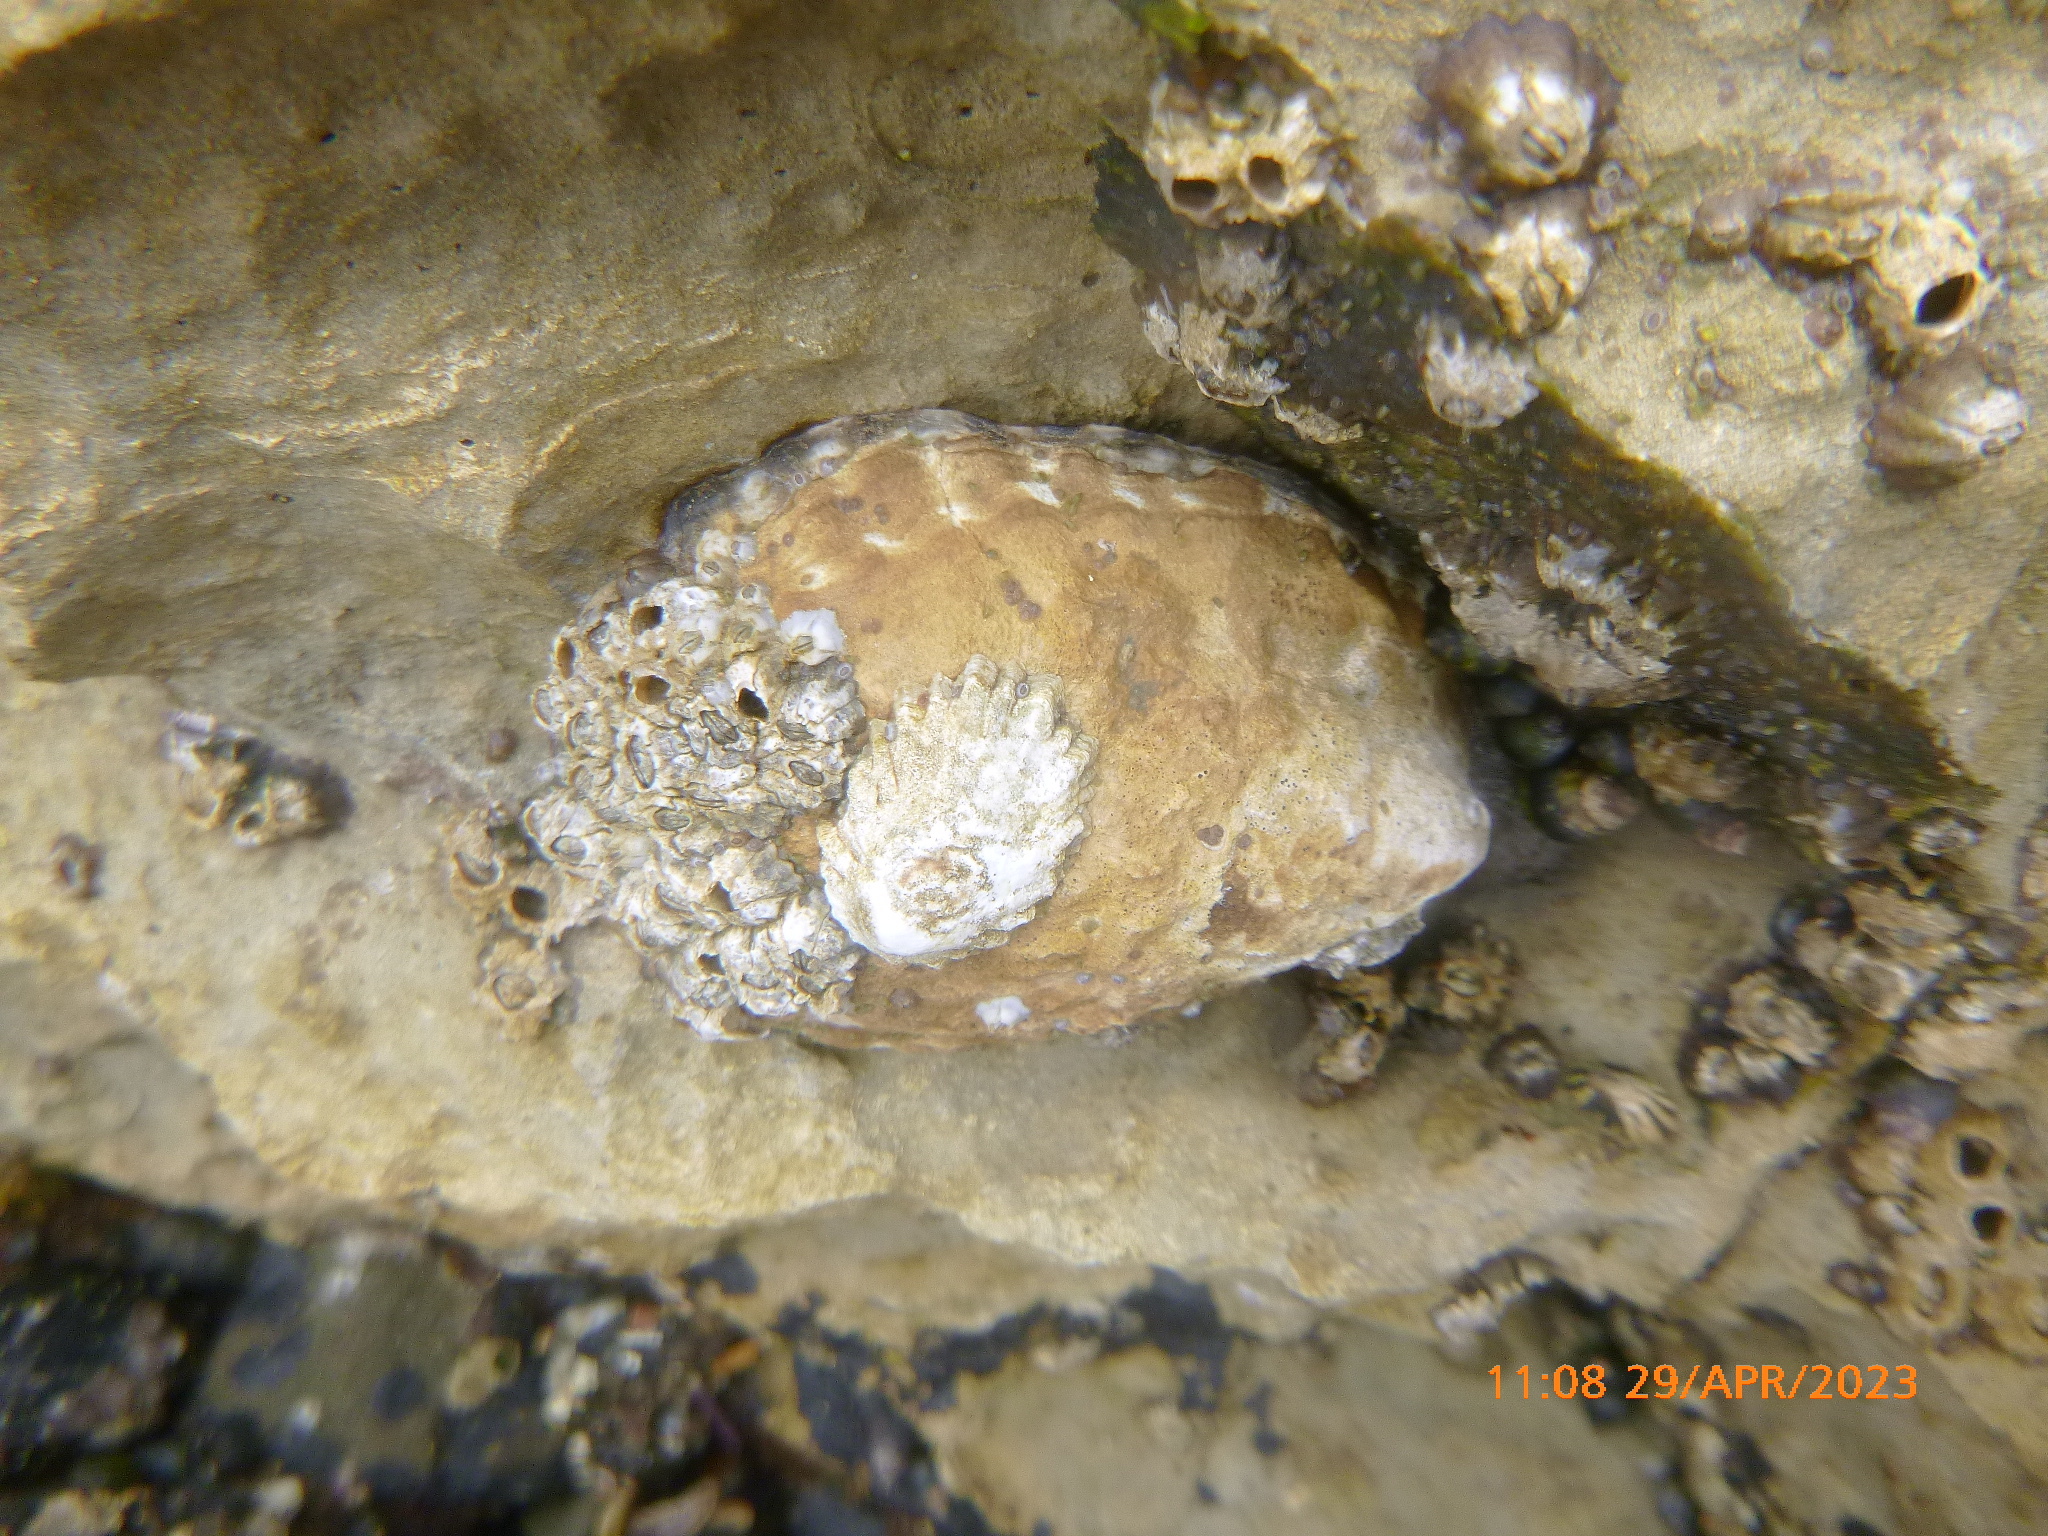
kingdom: Animalia
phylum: Mollusca
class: Gastropoda
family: Lottiidae
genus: Lottia
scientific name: Lottia gigantea
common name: Owl limpet
